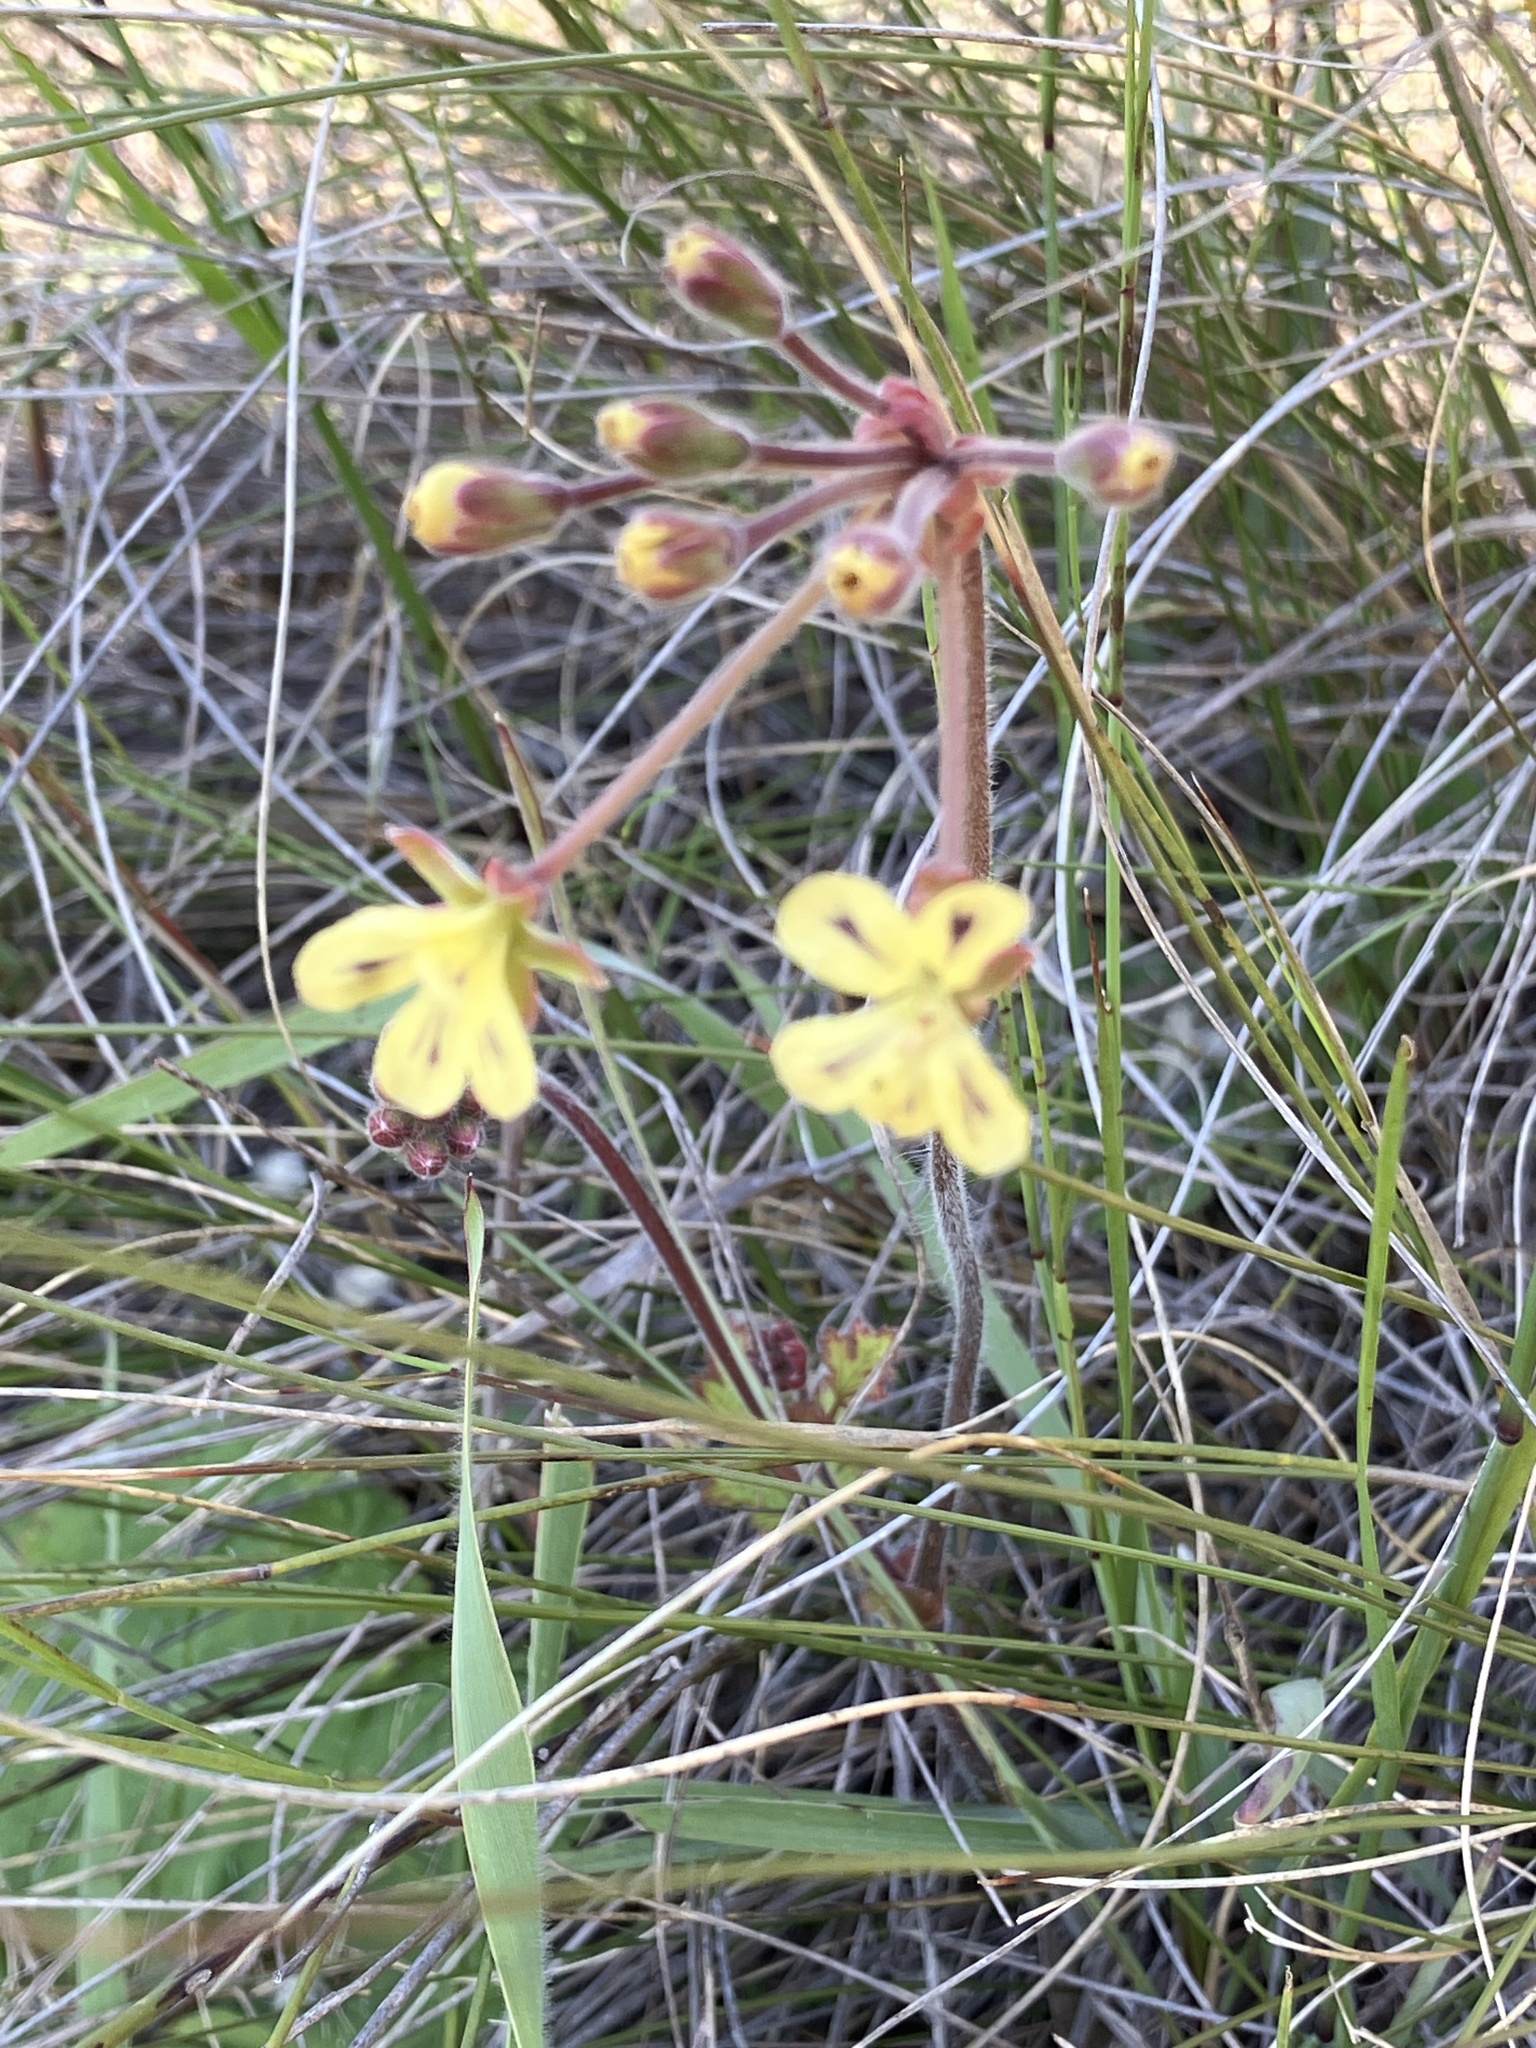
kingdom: Plantae
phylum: Tracheophyta
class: Magnoliopsida
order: Geraniales
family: Geraniaceae
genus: Pelargonium
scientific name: Pelargonium lobatum
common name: Vine-leaf pelargonium
